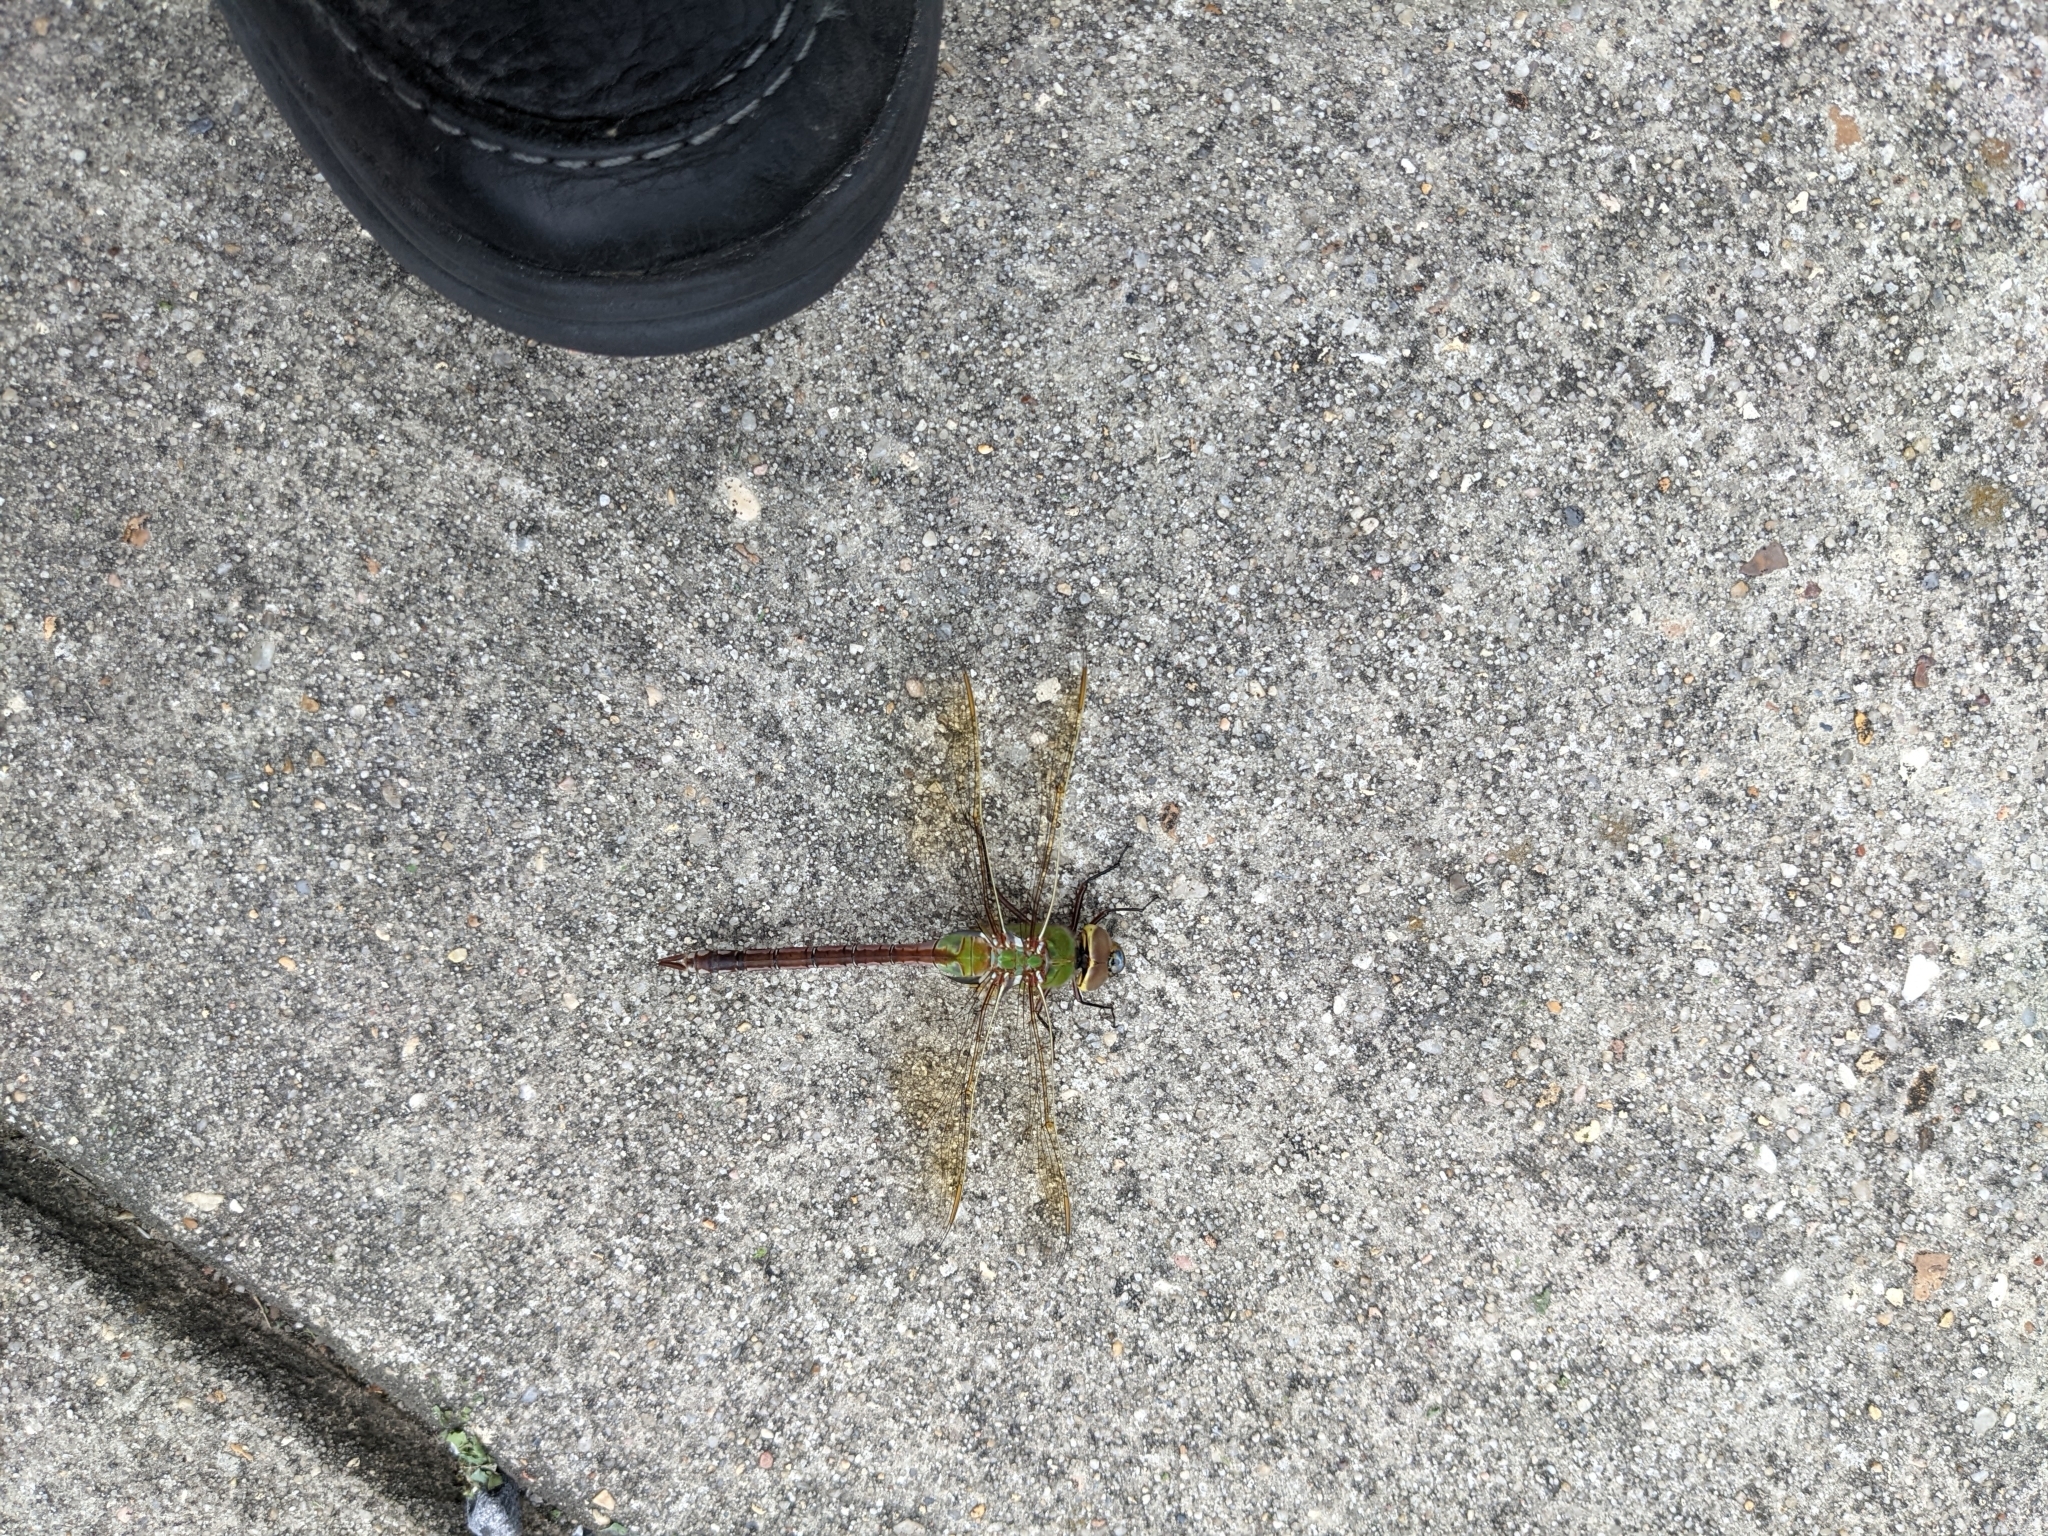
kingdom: Animalia
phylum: Arthropoda
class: Insecta
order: Odonata
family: Aeshnidae
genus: Anax
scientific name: Anax junius
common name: Common green darner
